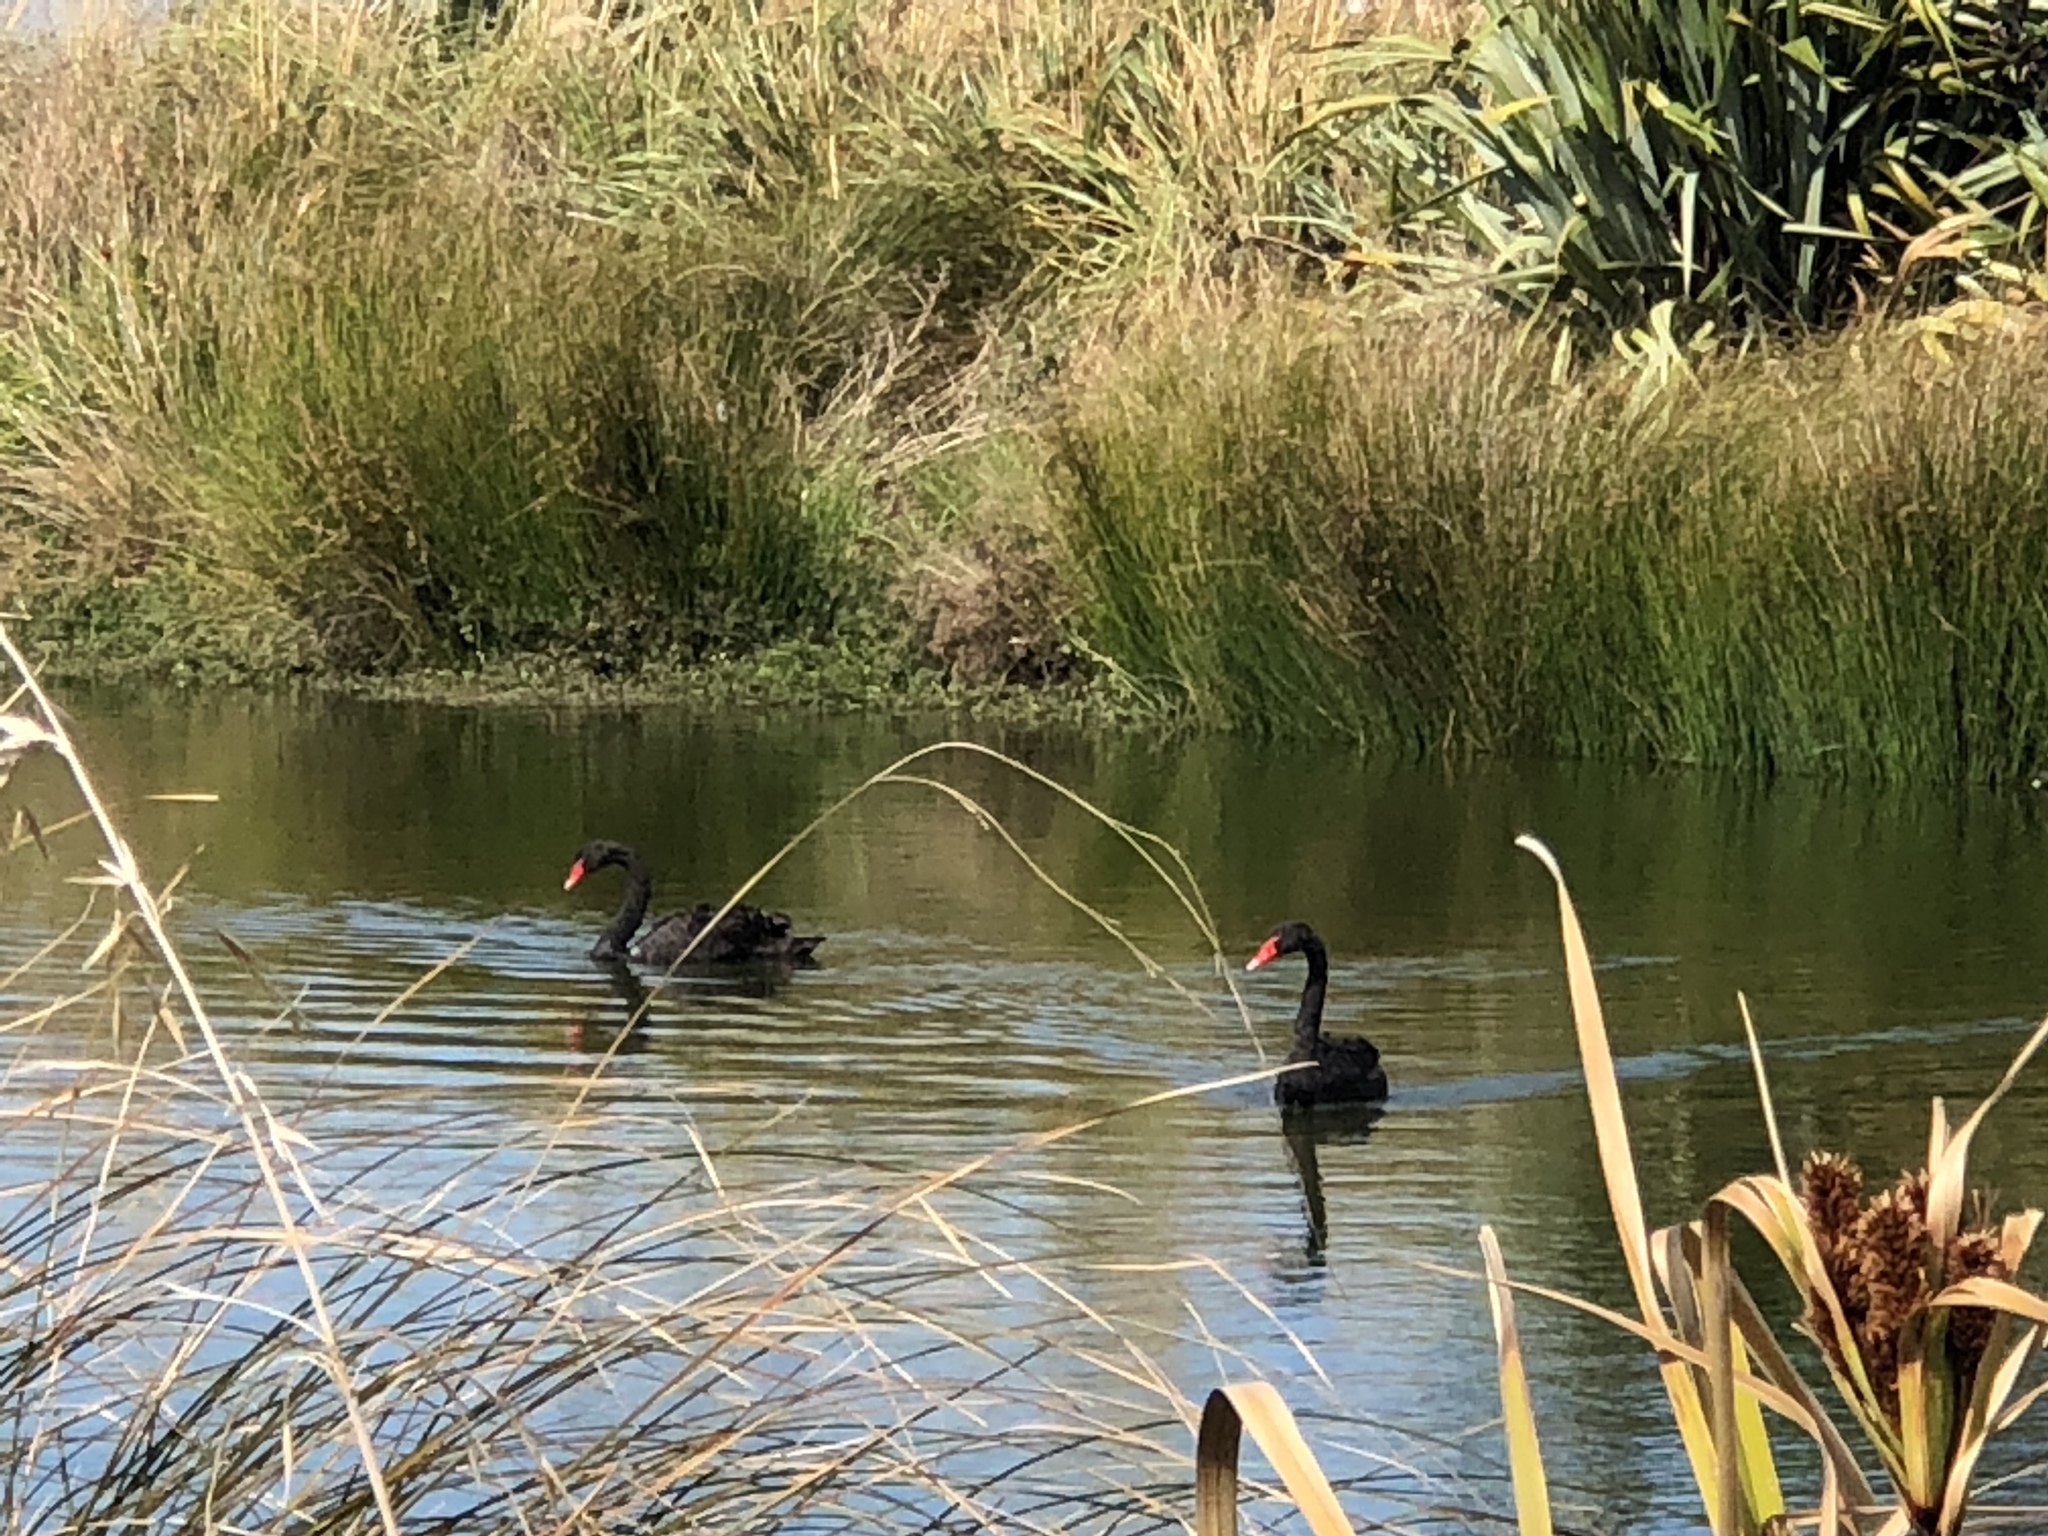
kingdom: Animalia
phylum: Chordata
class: Aves
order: Anseriformes
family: Anatidae
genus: Cygnus
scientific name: Cygnus atratus
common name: Black swan
